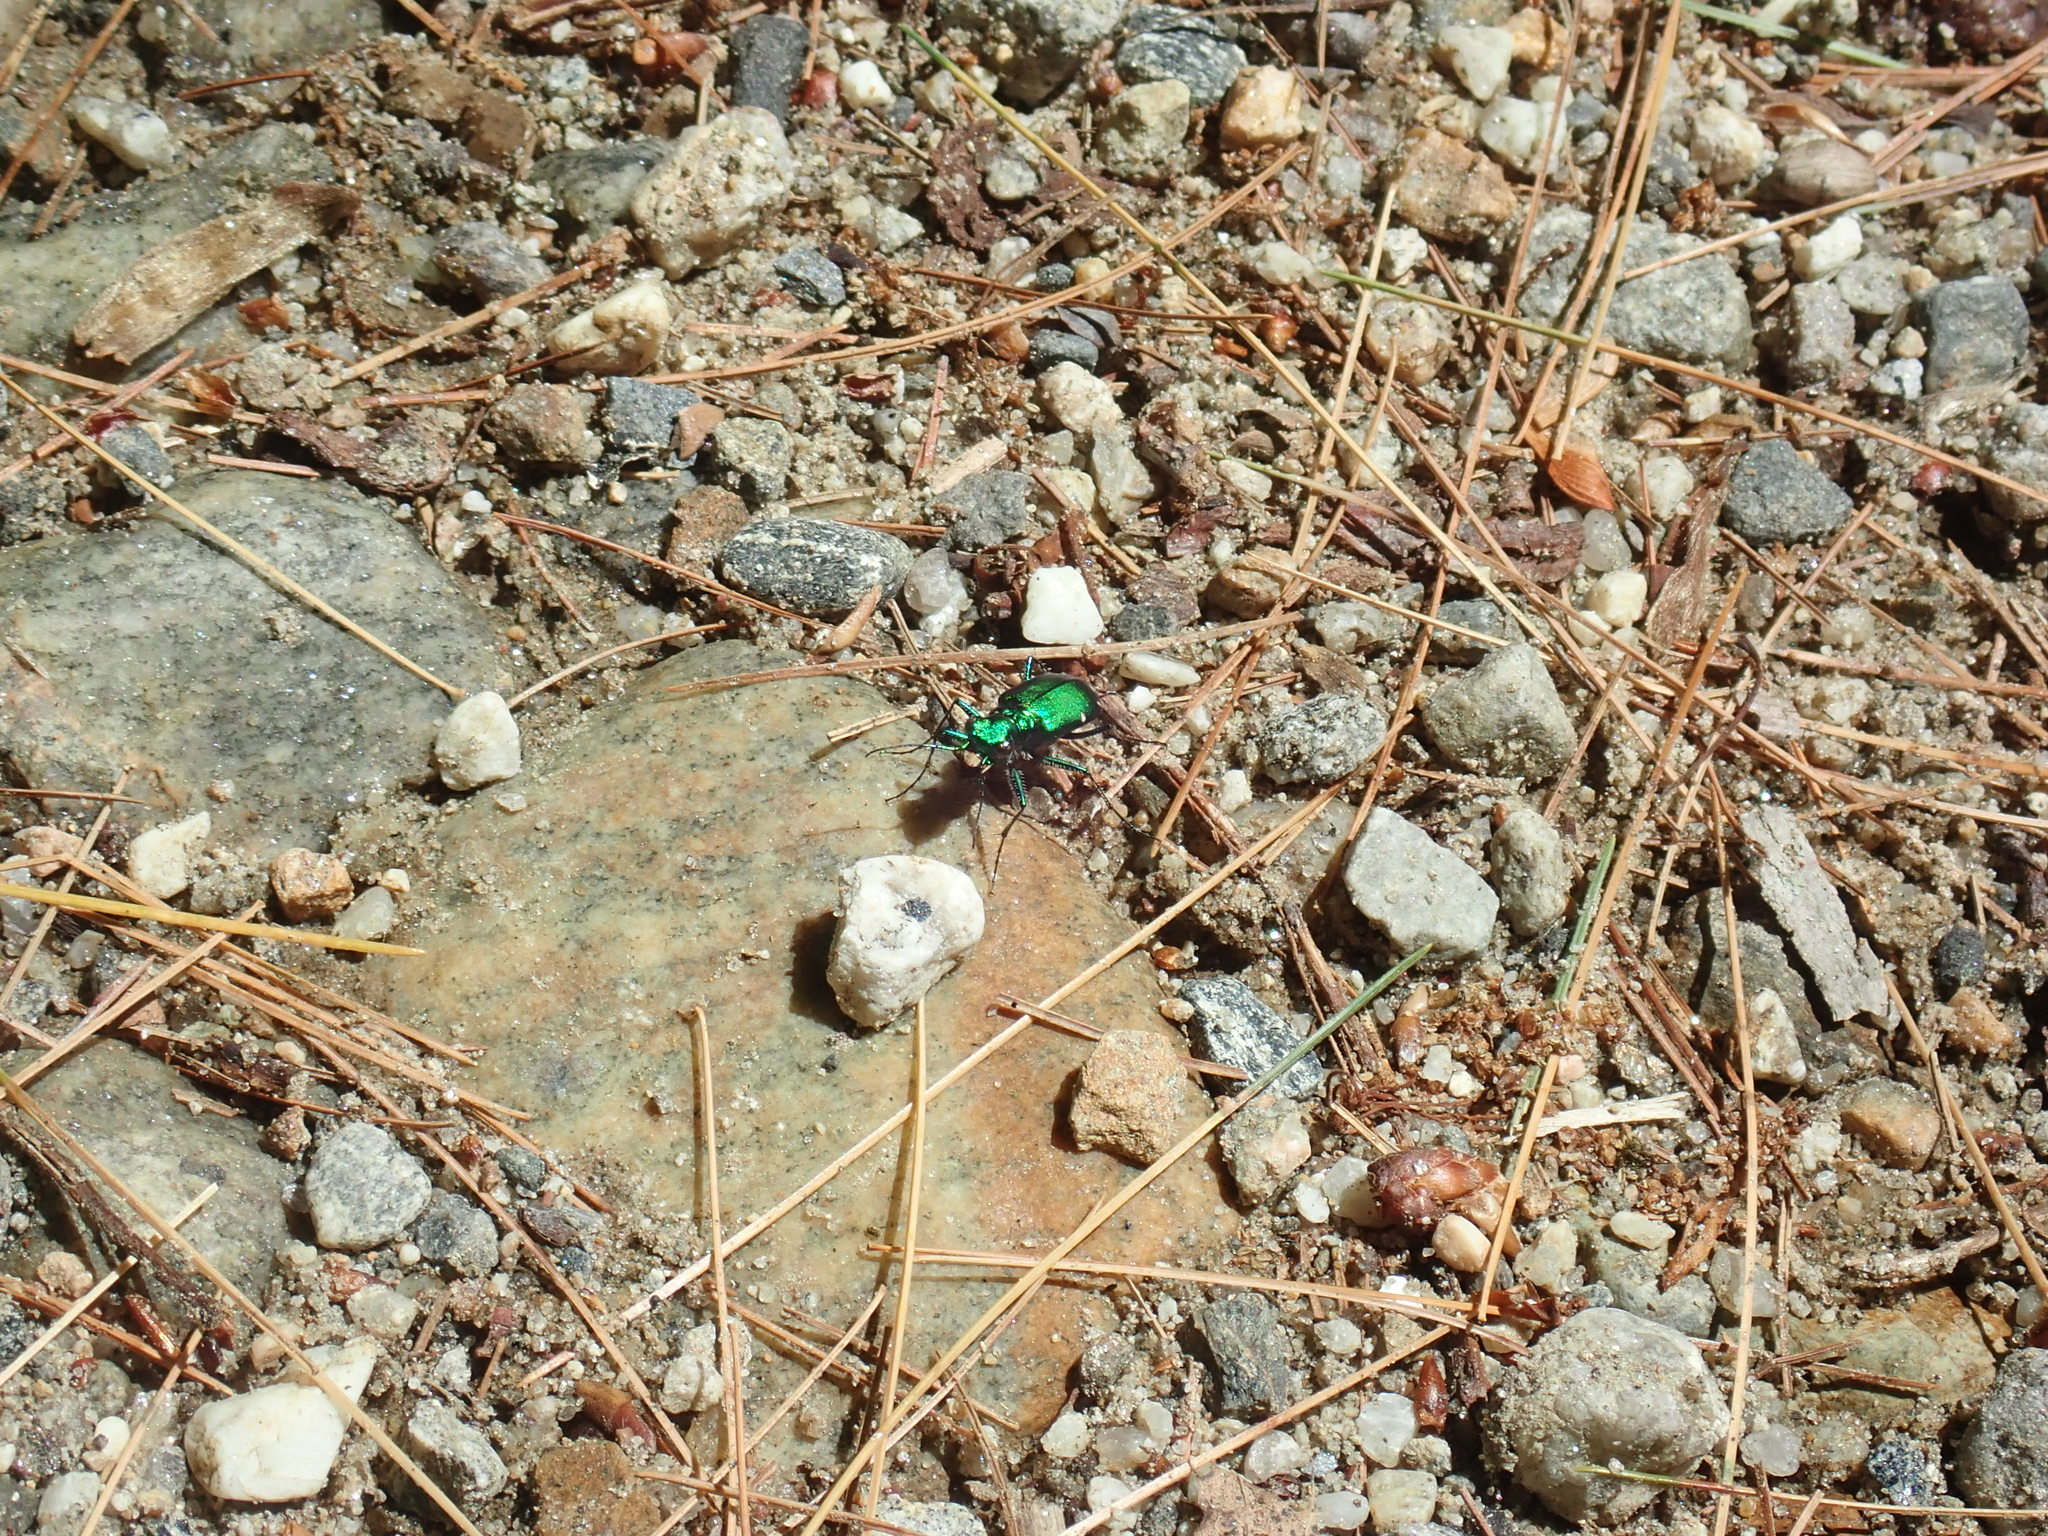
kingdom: Animalia
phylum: Arthropoda
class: Insecta
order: Coleoptera
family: Carabidae
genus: Cicindela
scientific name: Cicindela sexguttata
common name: Six-spotted tiger beetle
